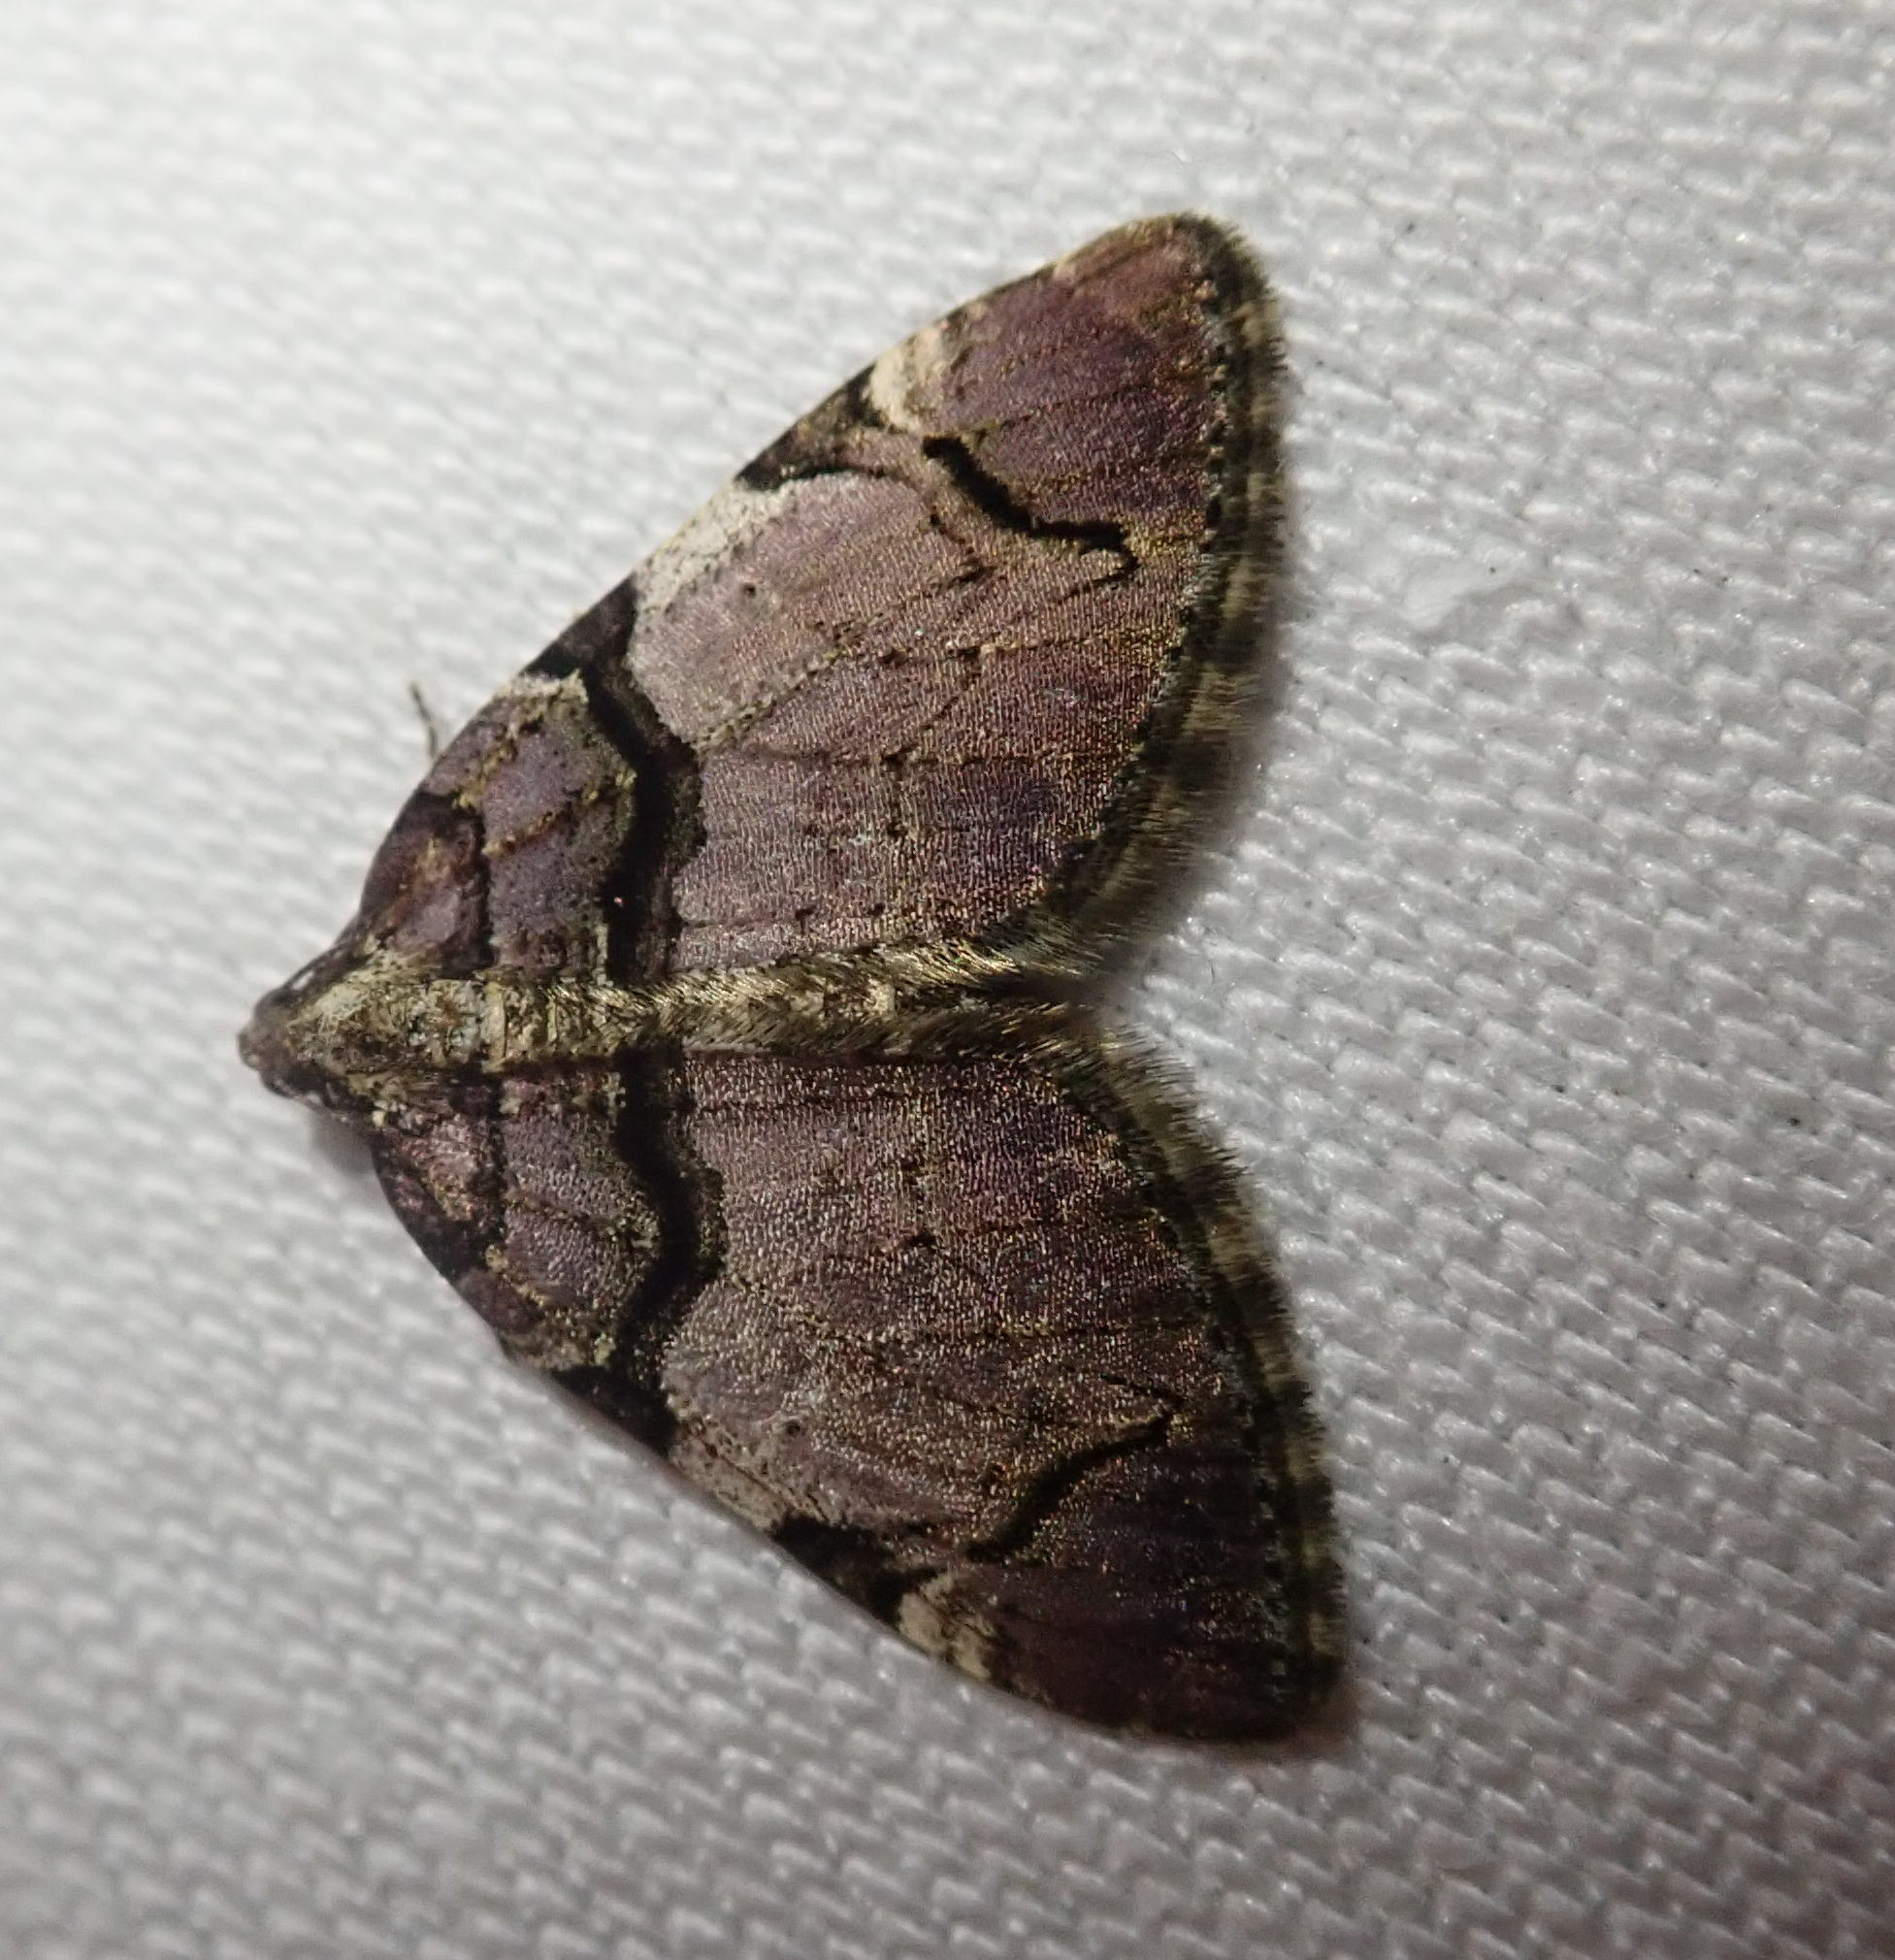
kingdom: Animalia
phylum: Arthropoda
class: Insecta
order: Lepidoptera
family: Geometridae
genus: Anticlea
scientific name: Anticlea derivata
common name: Streamer
